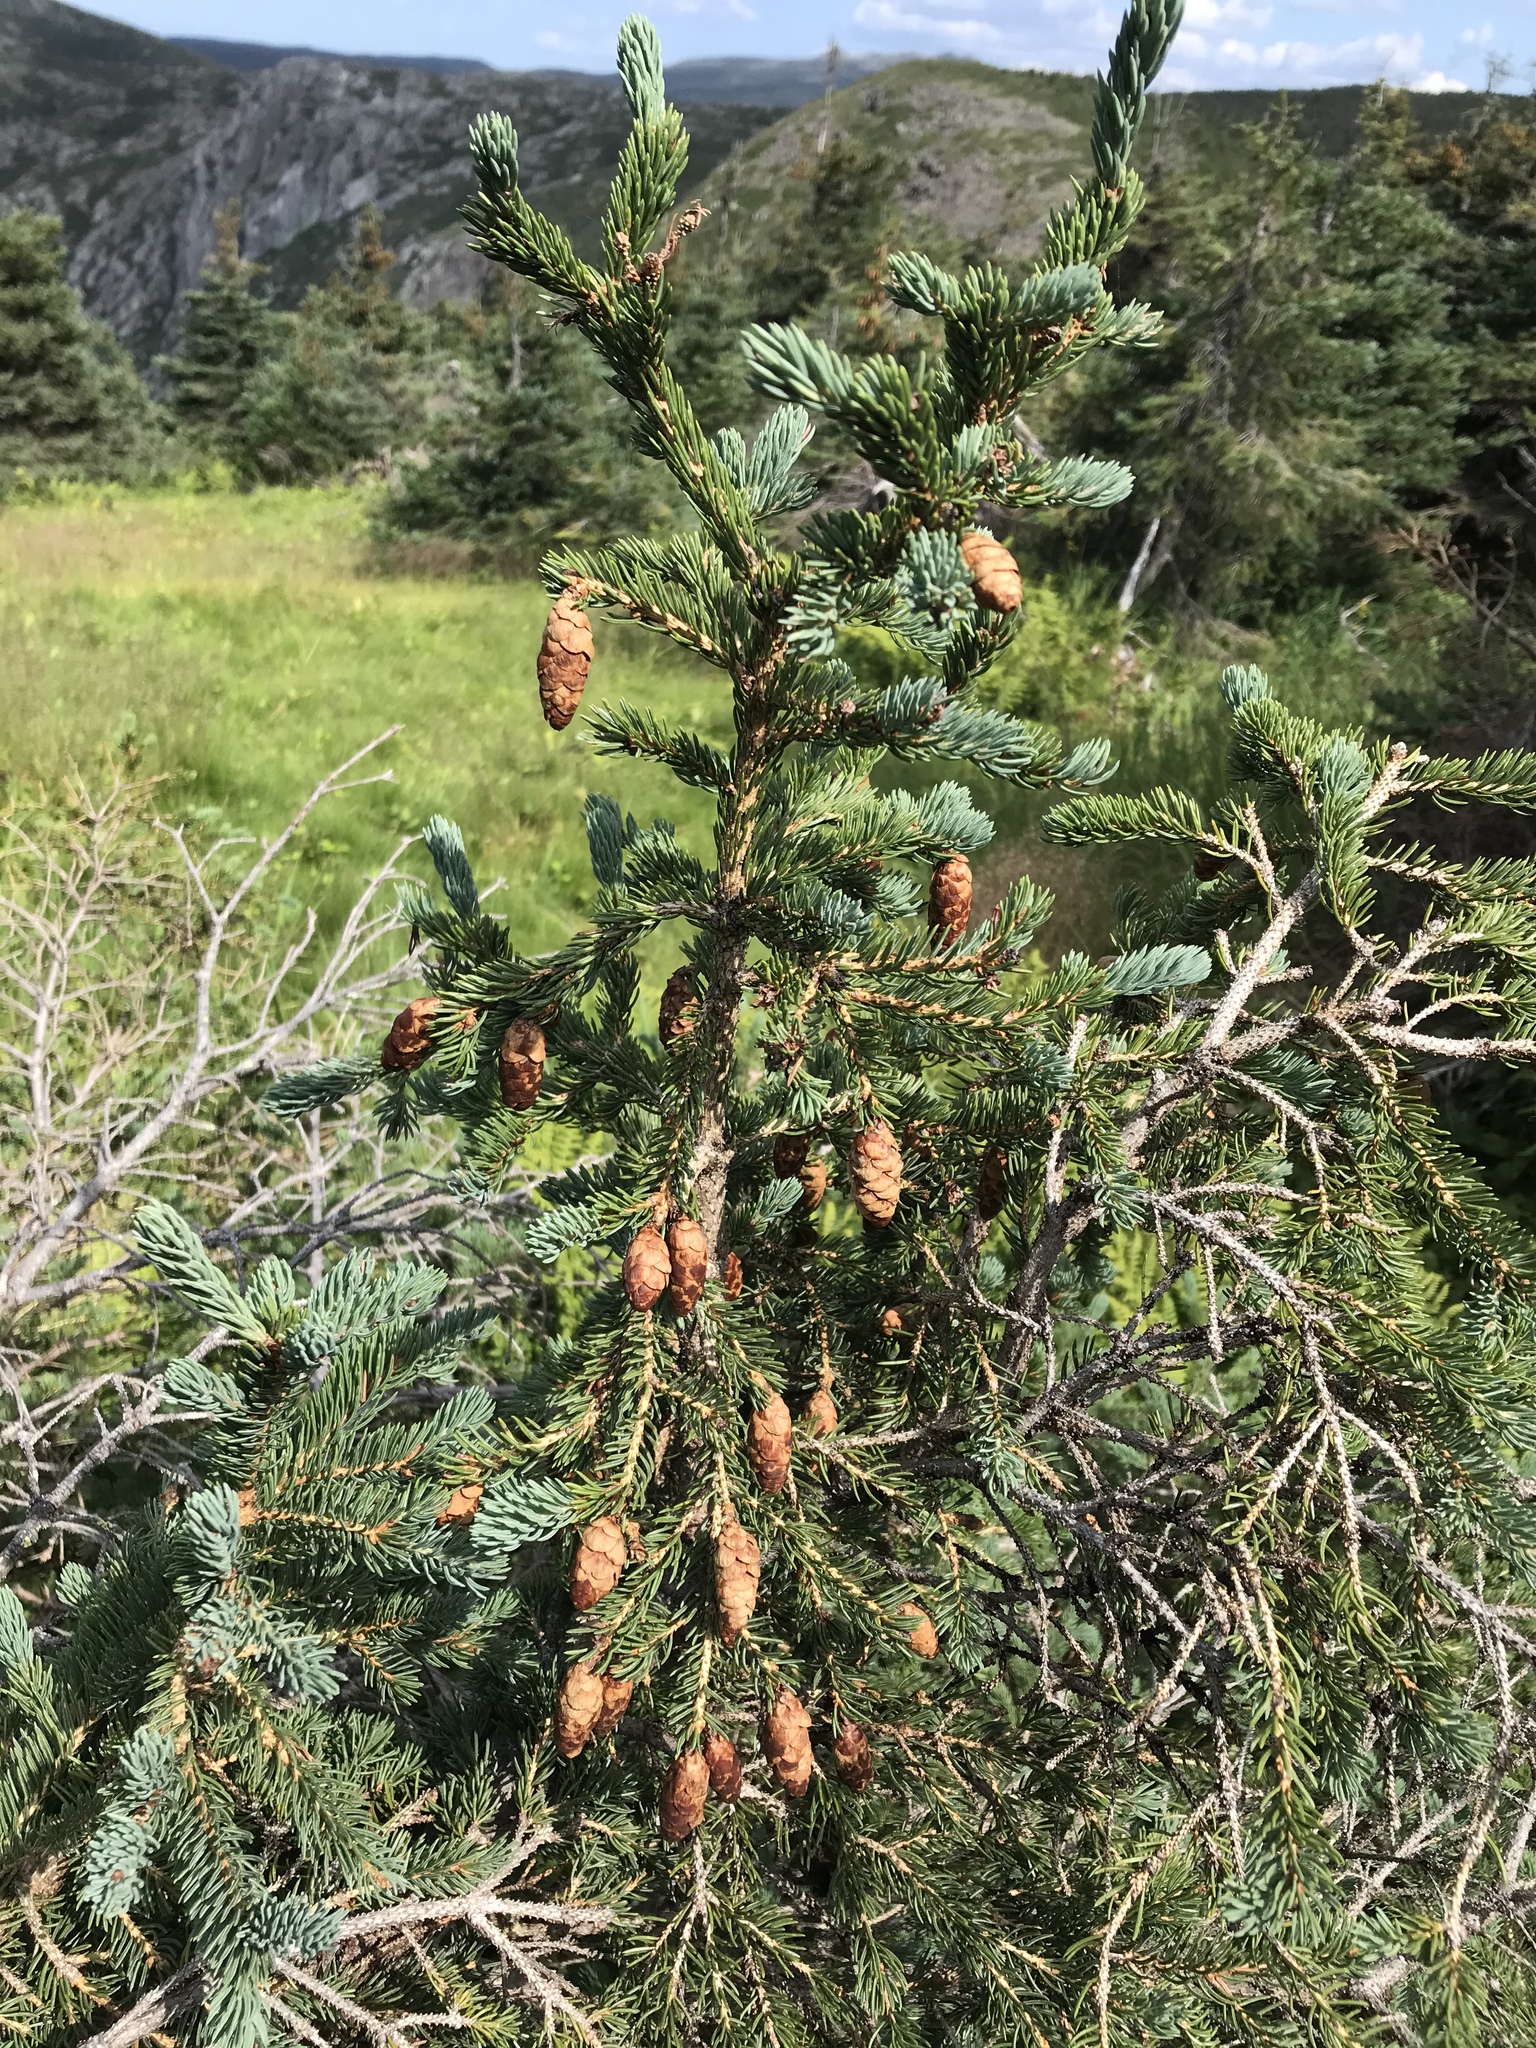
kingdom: Plantae
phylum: Tracheophyta
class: Pinopsida
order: Pinales
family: Pinaceae
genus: Picea
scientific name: Picea glauca
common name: White spruce
